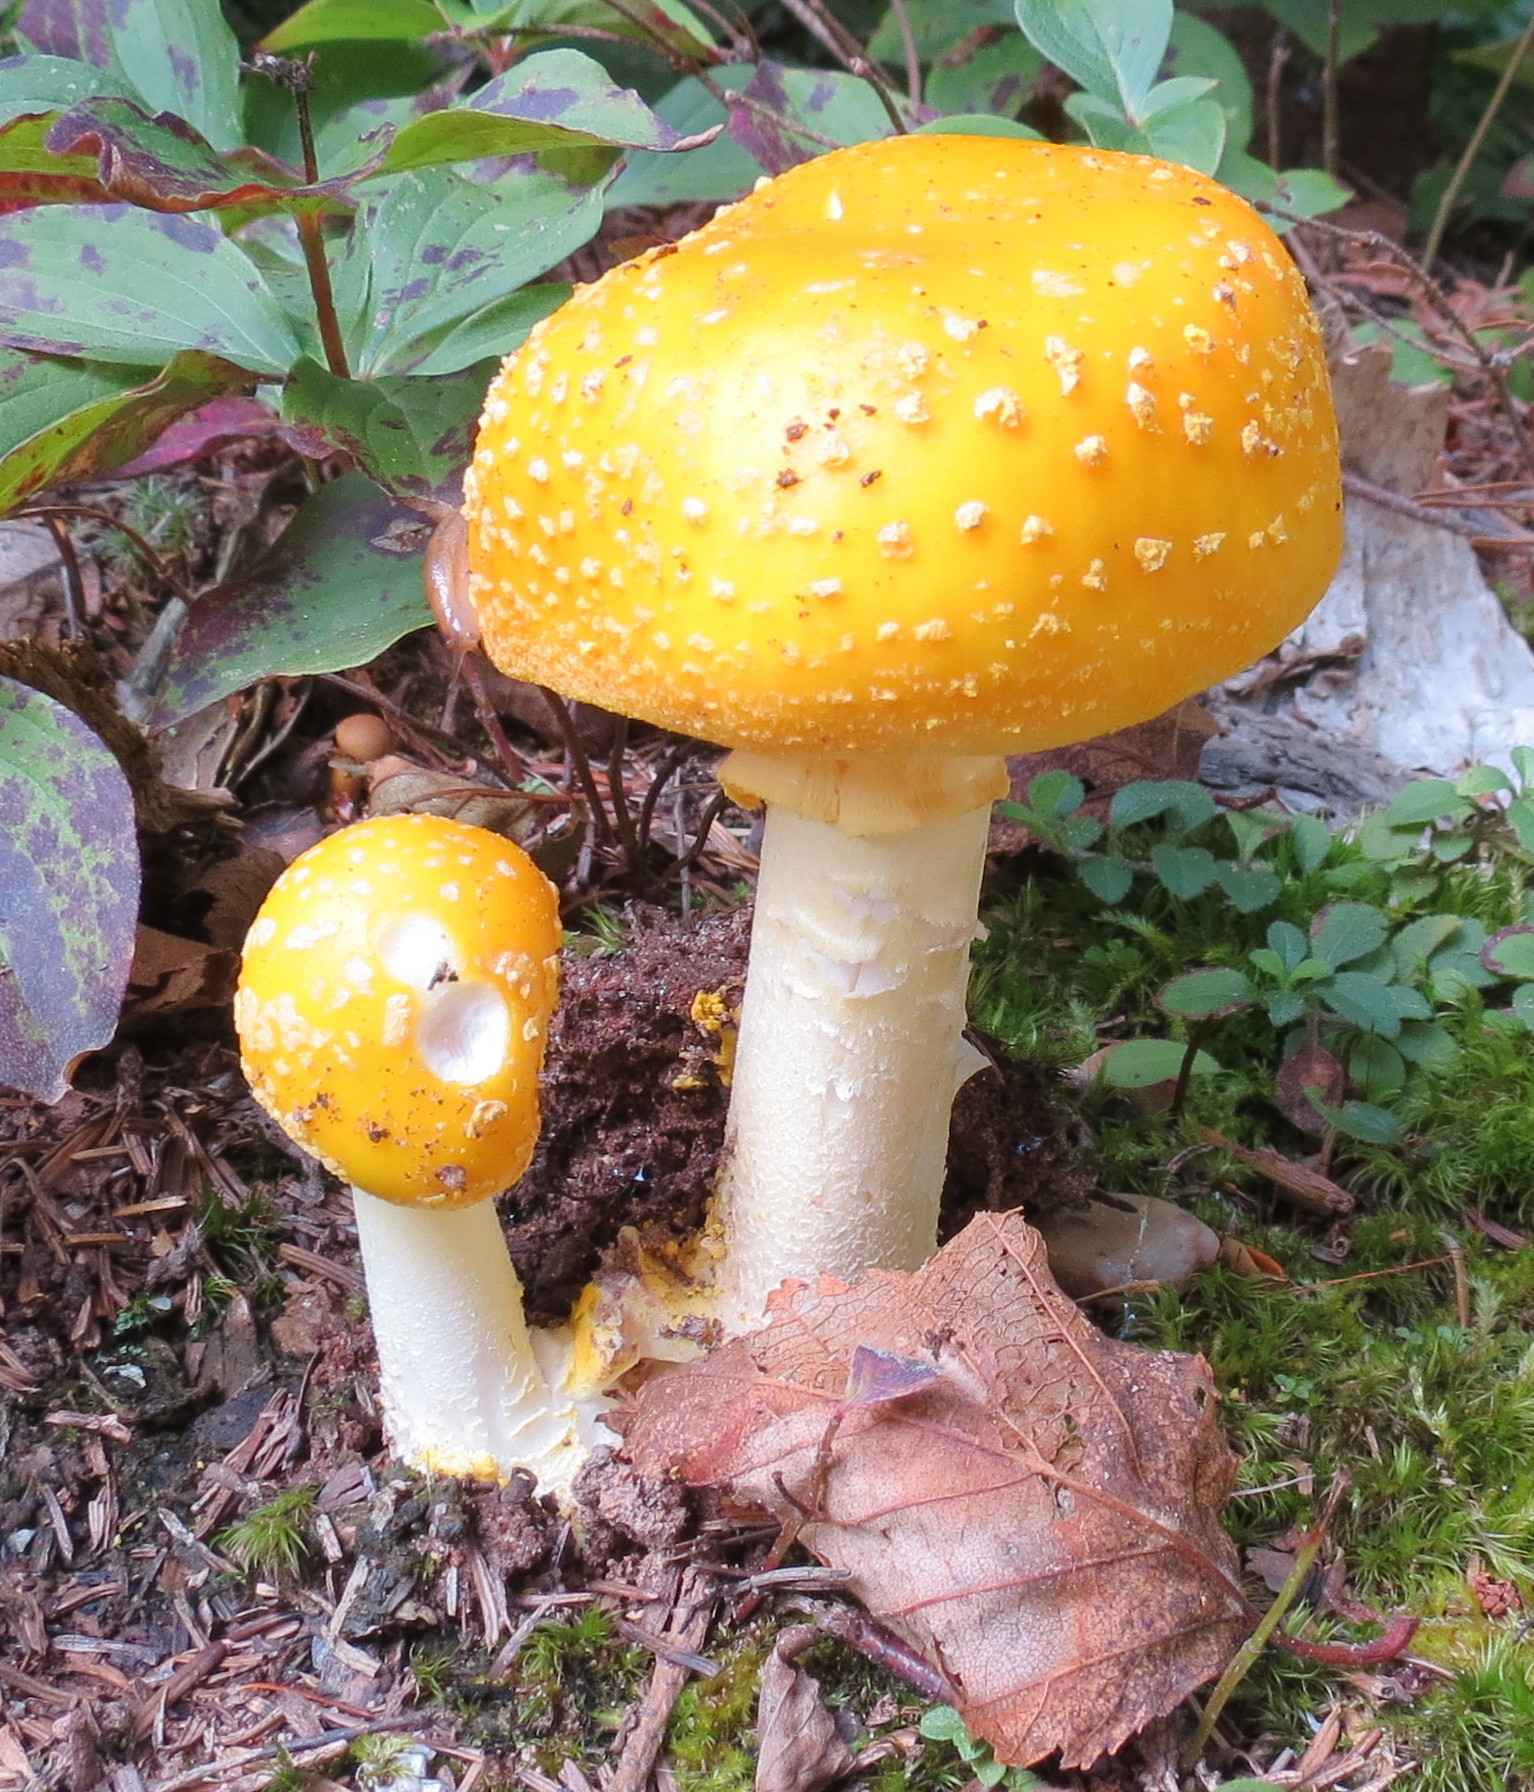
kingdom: Fungi
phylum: Basidiomycota
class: Agaricomycetes
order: Agaricales
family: Amanitaceae
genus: Amanita
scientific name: Amanita flavoconia
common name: Yellow patches
